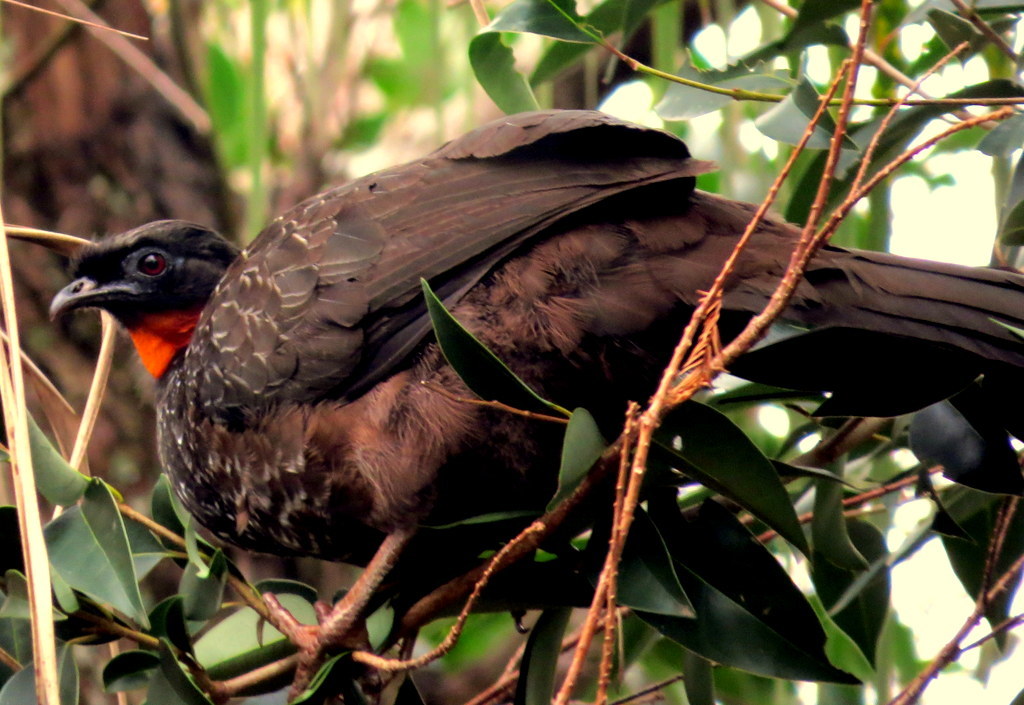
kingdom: Animalia
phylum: Chordata
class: Aves
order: Galliformes
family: Cracidae
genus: Penelope
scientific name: Penelope obscura
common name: Dusky-legged guan
